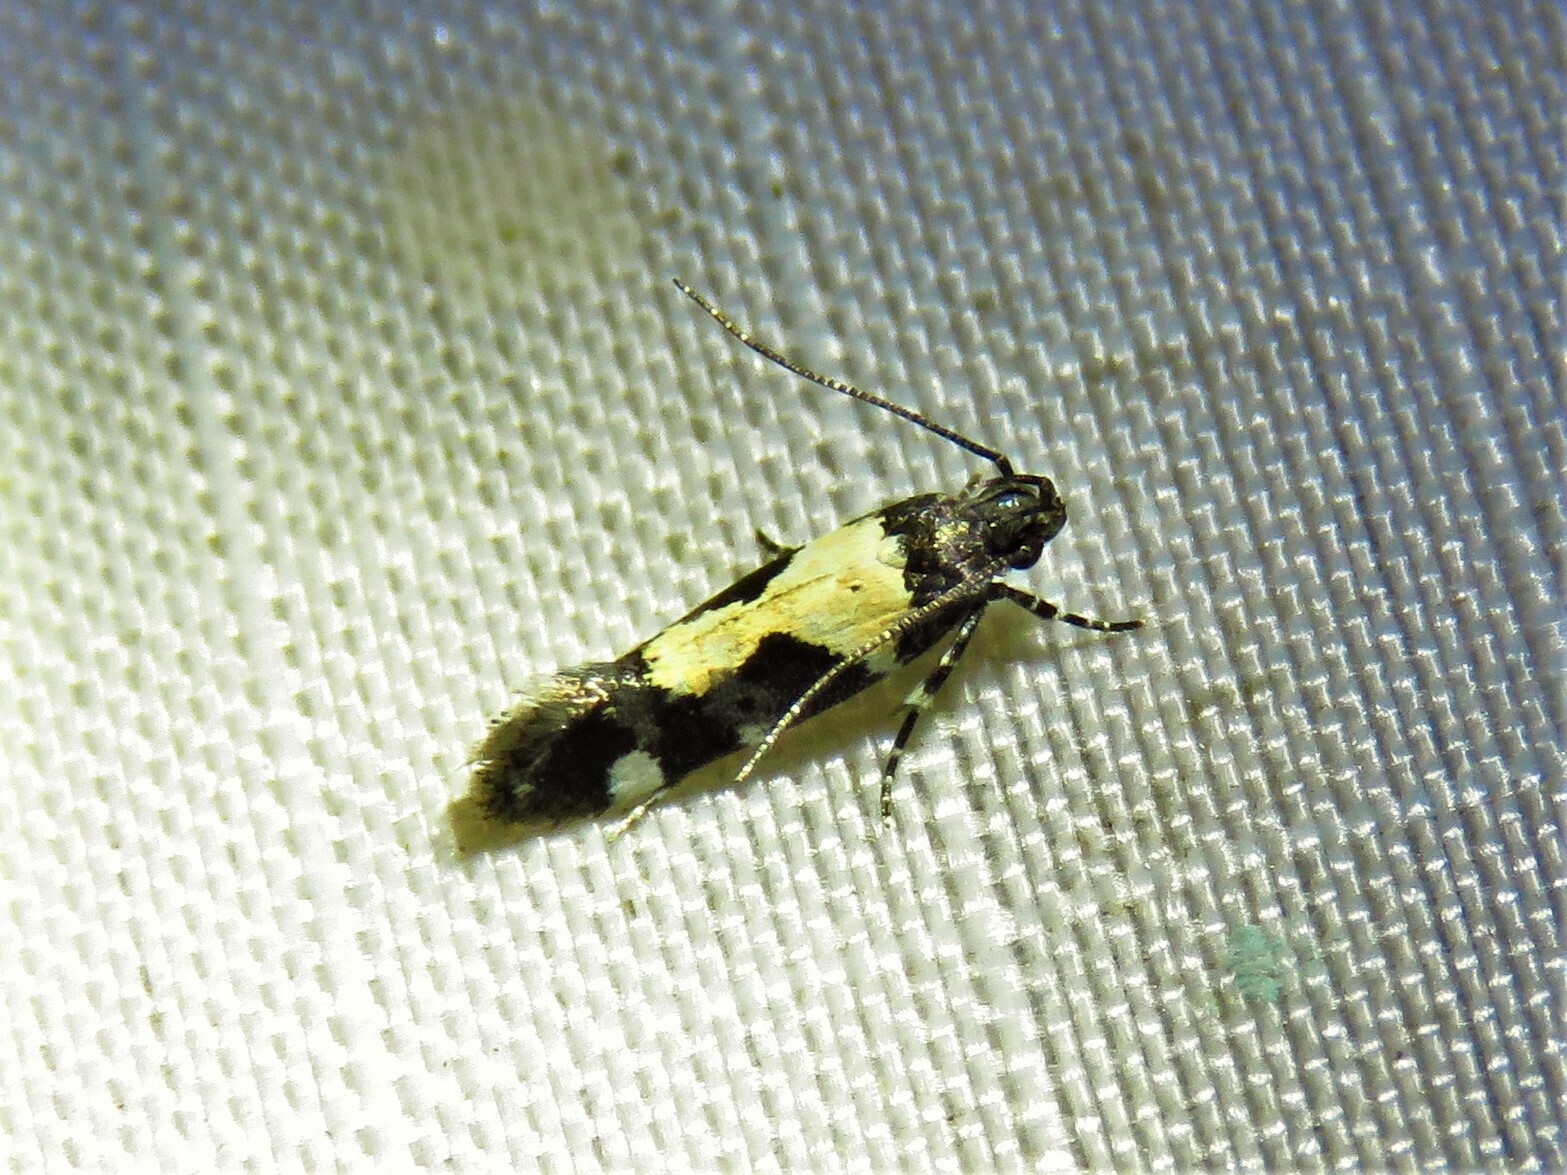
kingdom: Animalia
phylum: Arthropoda
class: Insecta
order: Lepidoptera
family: Gelechiidae
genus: Stegasta
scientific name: Stegasta bosqueella
